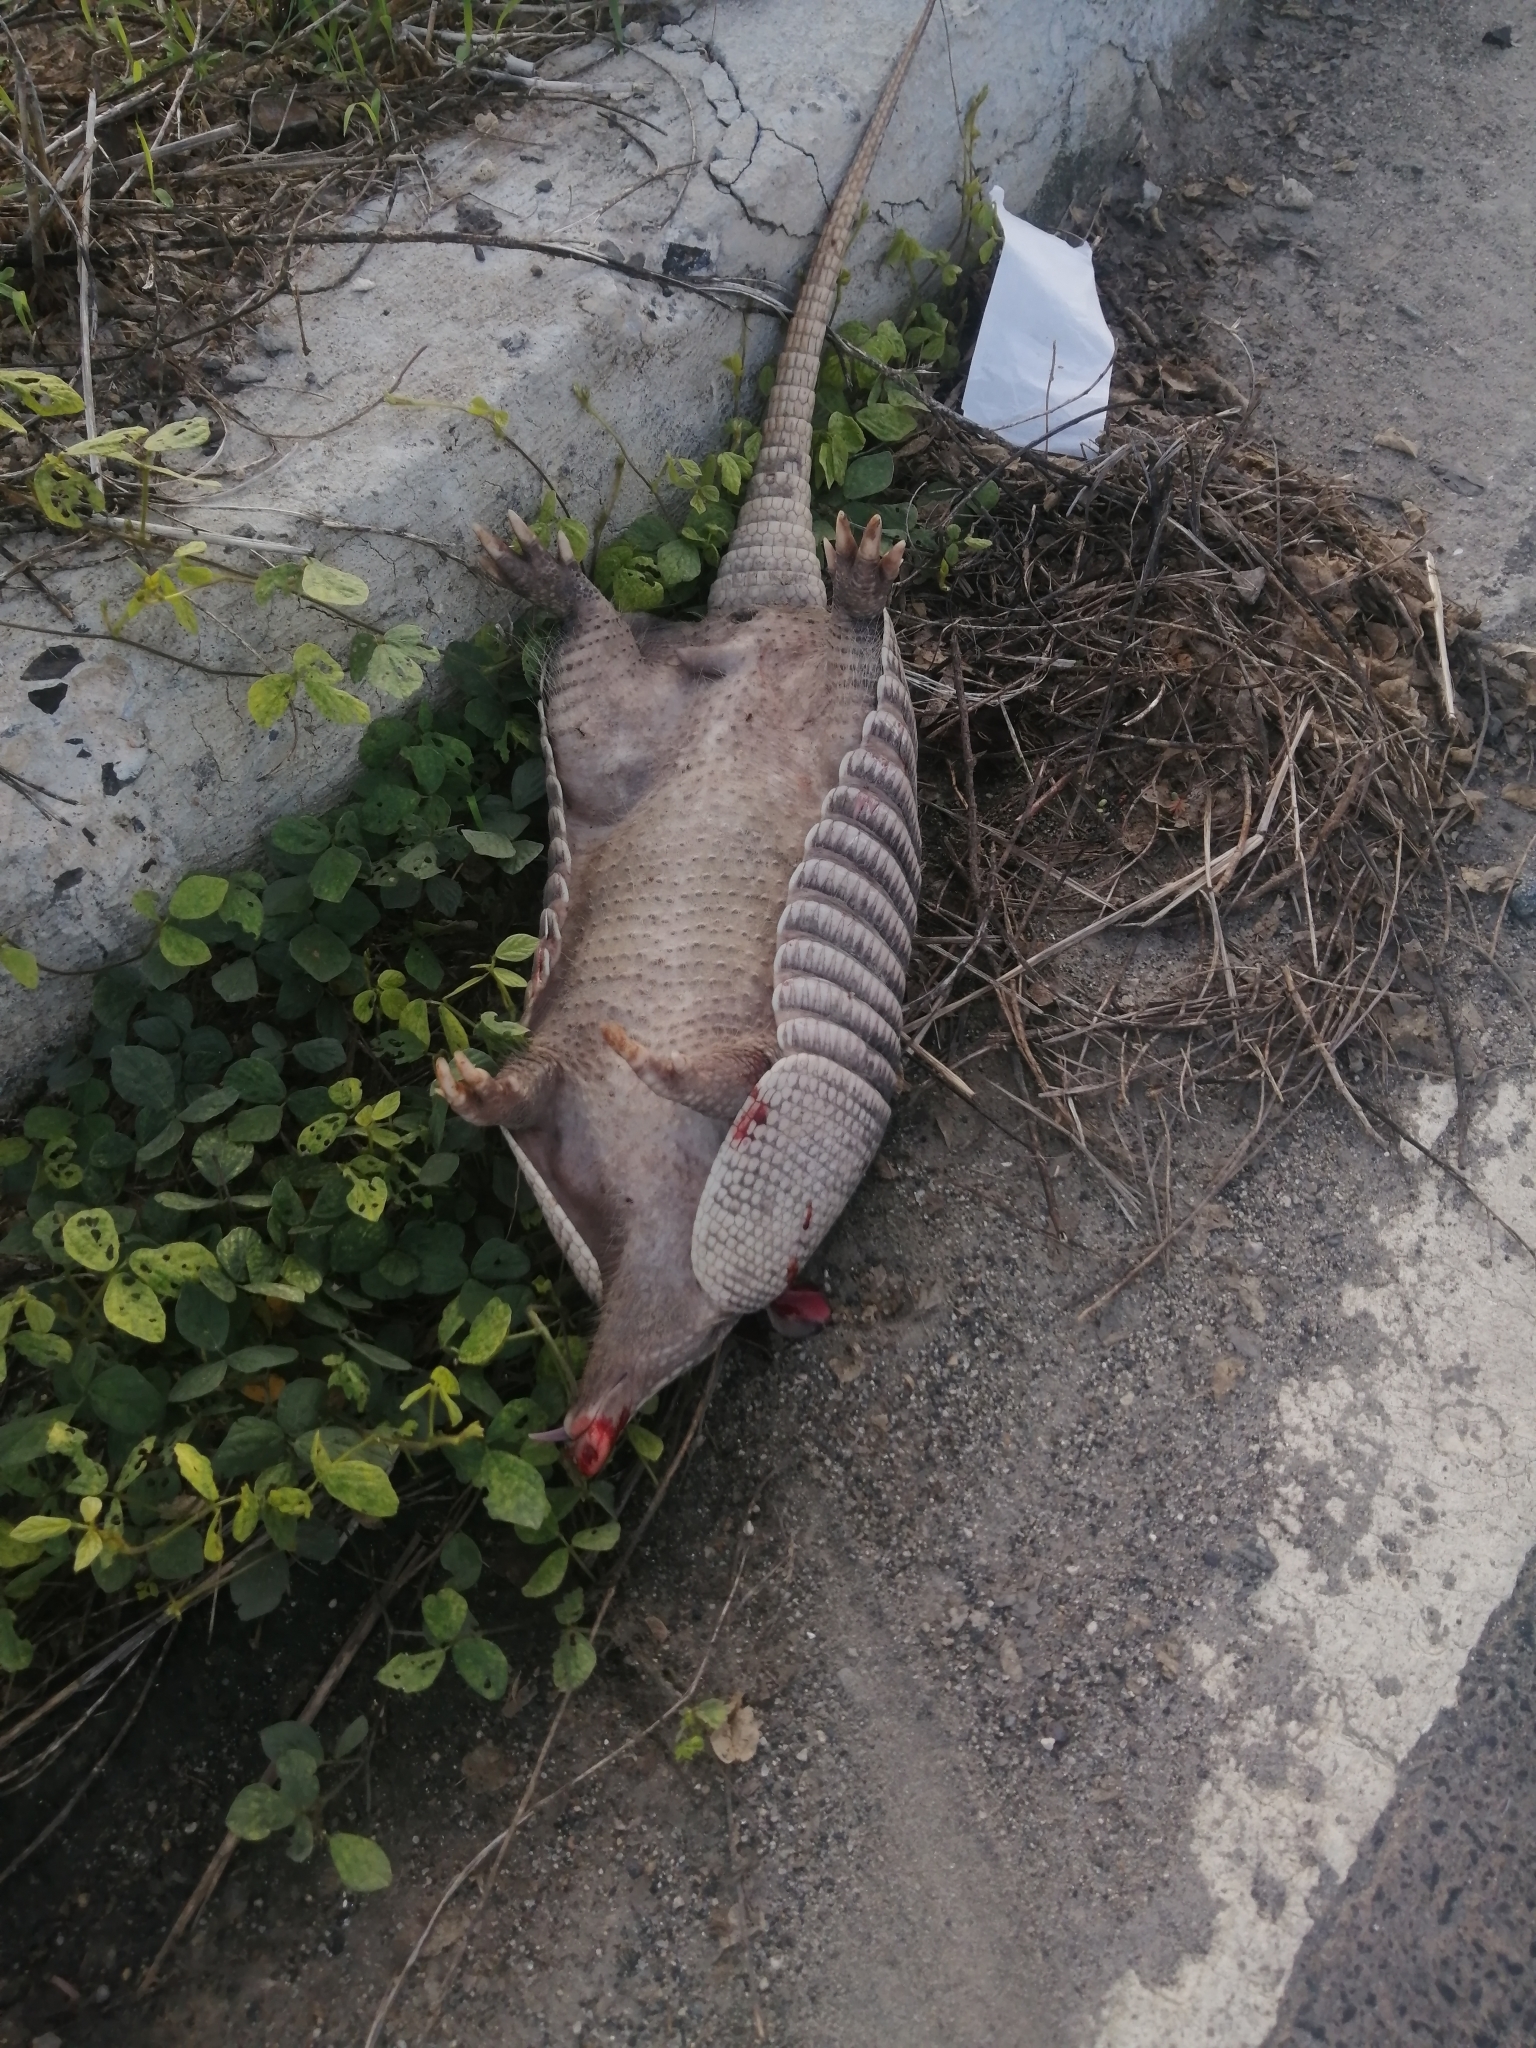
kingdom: Animalia
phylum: Chordata
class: Mammalia
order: Cingulata
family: Dasypodidae
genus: Dasypus
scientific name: Dasypus novemcinctus
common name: Nine-banded armadillo
